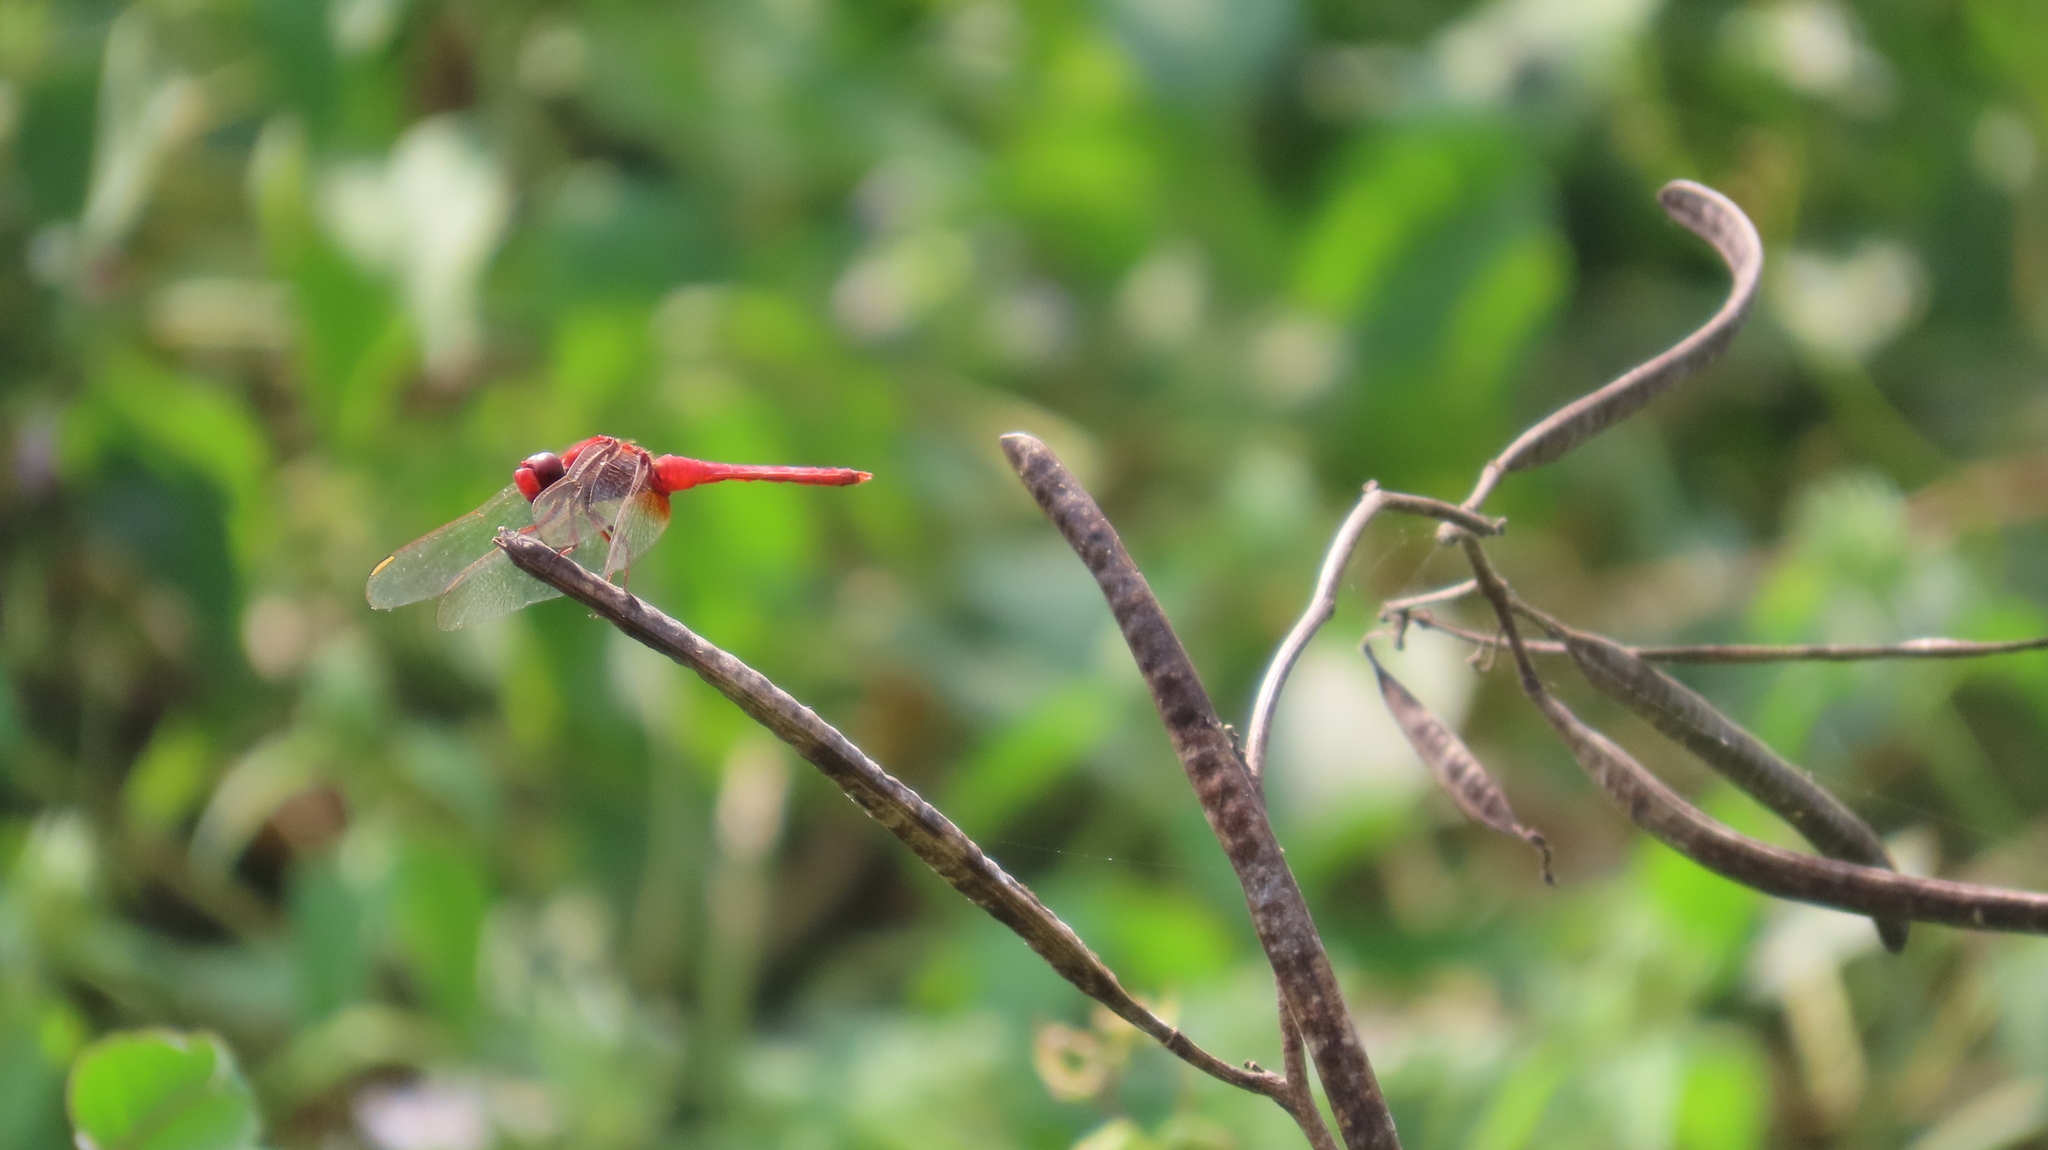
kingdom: Animalia
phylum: Arthropoda
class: Insecta
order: Odonata
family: Libellulidae
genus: Crocothemis
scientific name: Crocothemis servilia
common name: Scarlet skimmer
